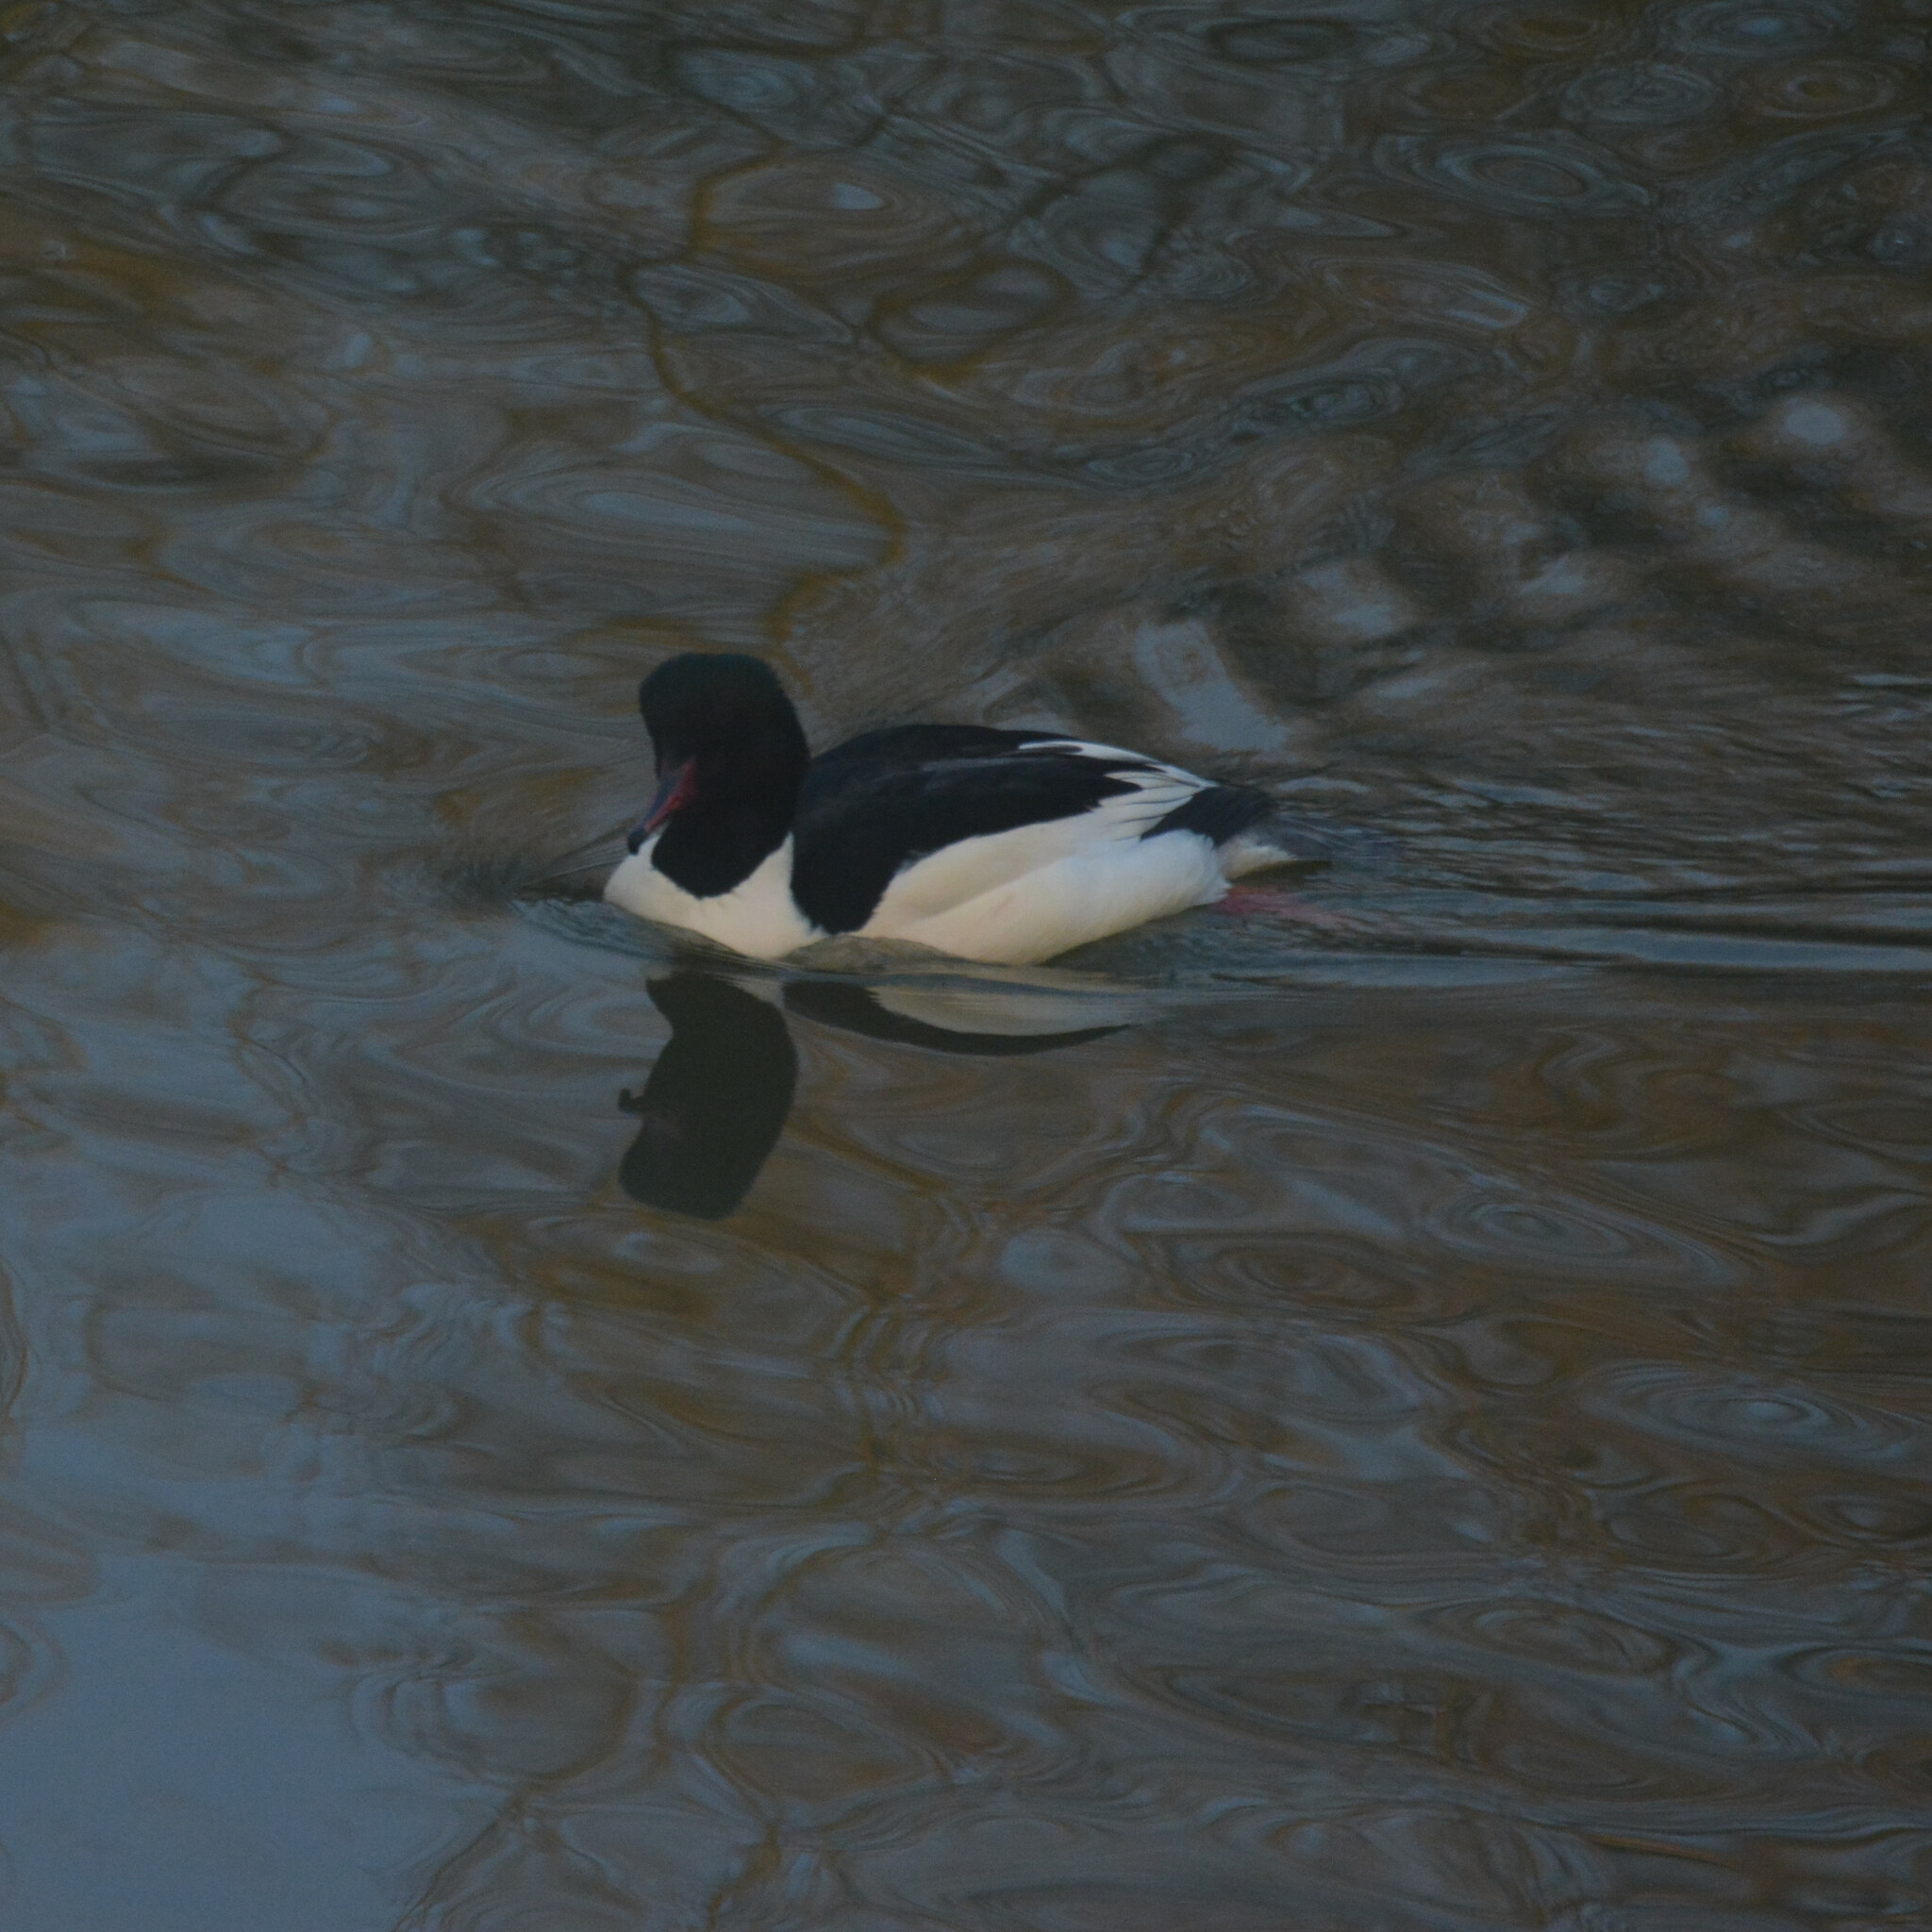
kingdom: Animalia
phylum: Chordata
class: Aves
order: Anseriformes
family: Anatidae
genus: Mergus
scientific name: Mergus merganser
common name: Common merganser
